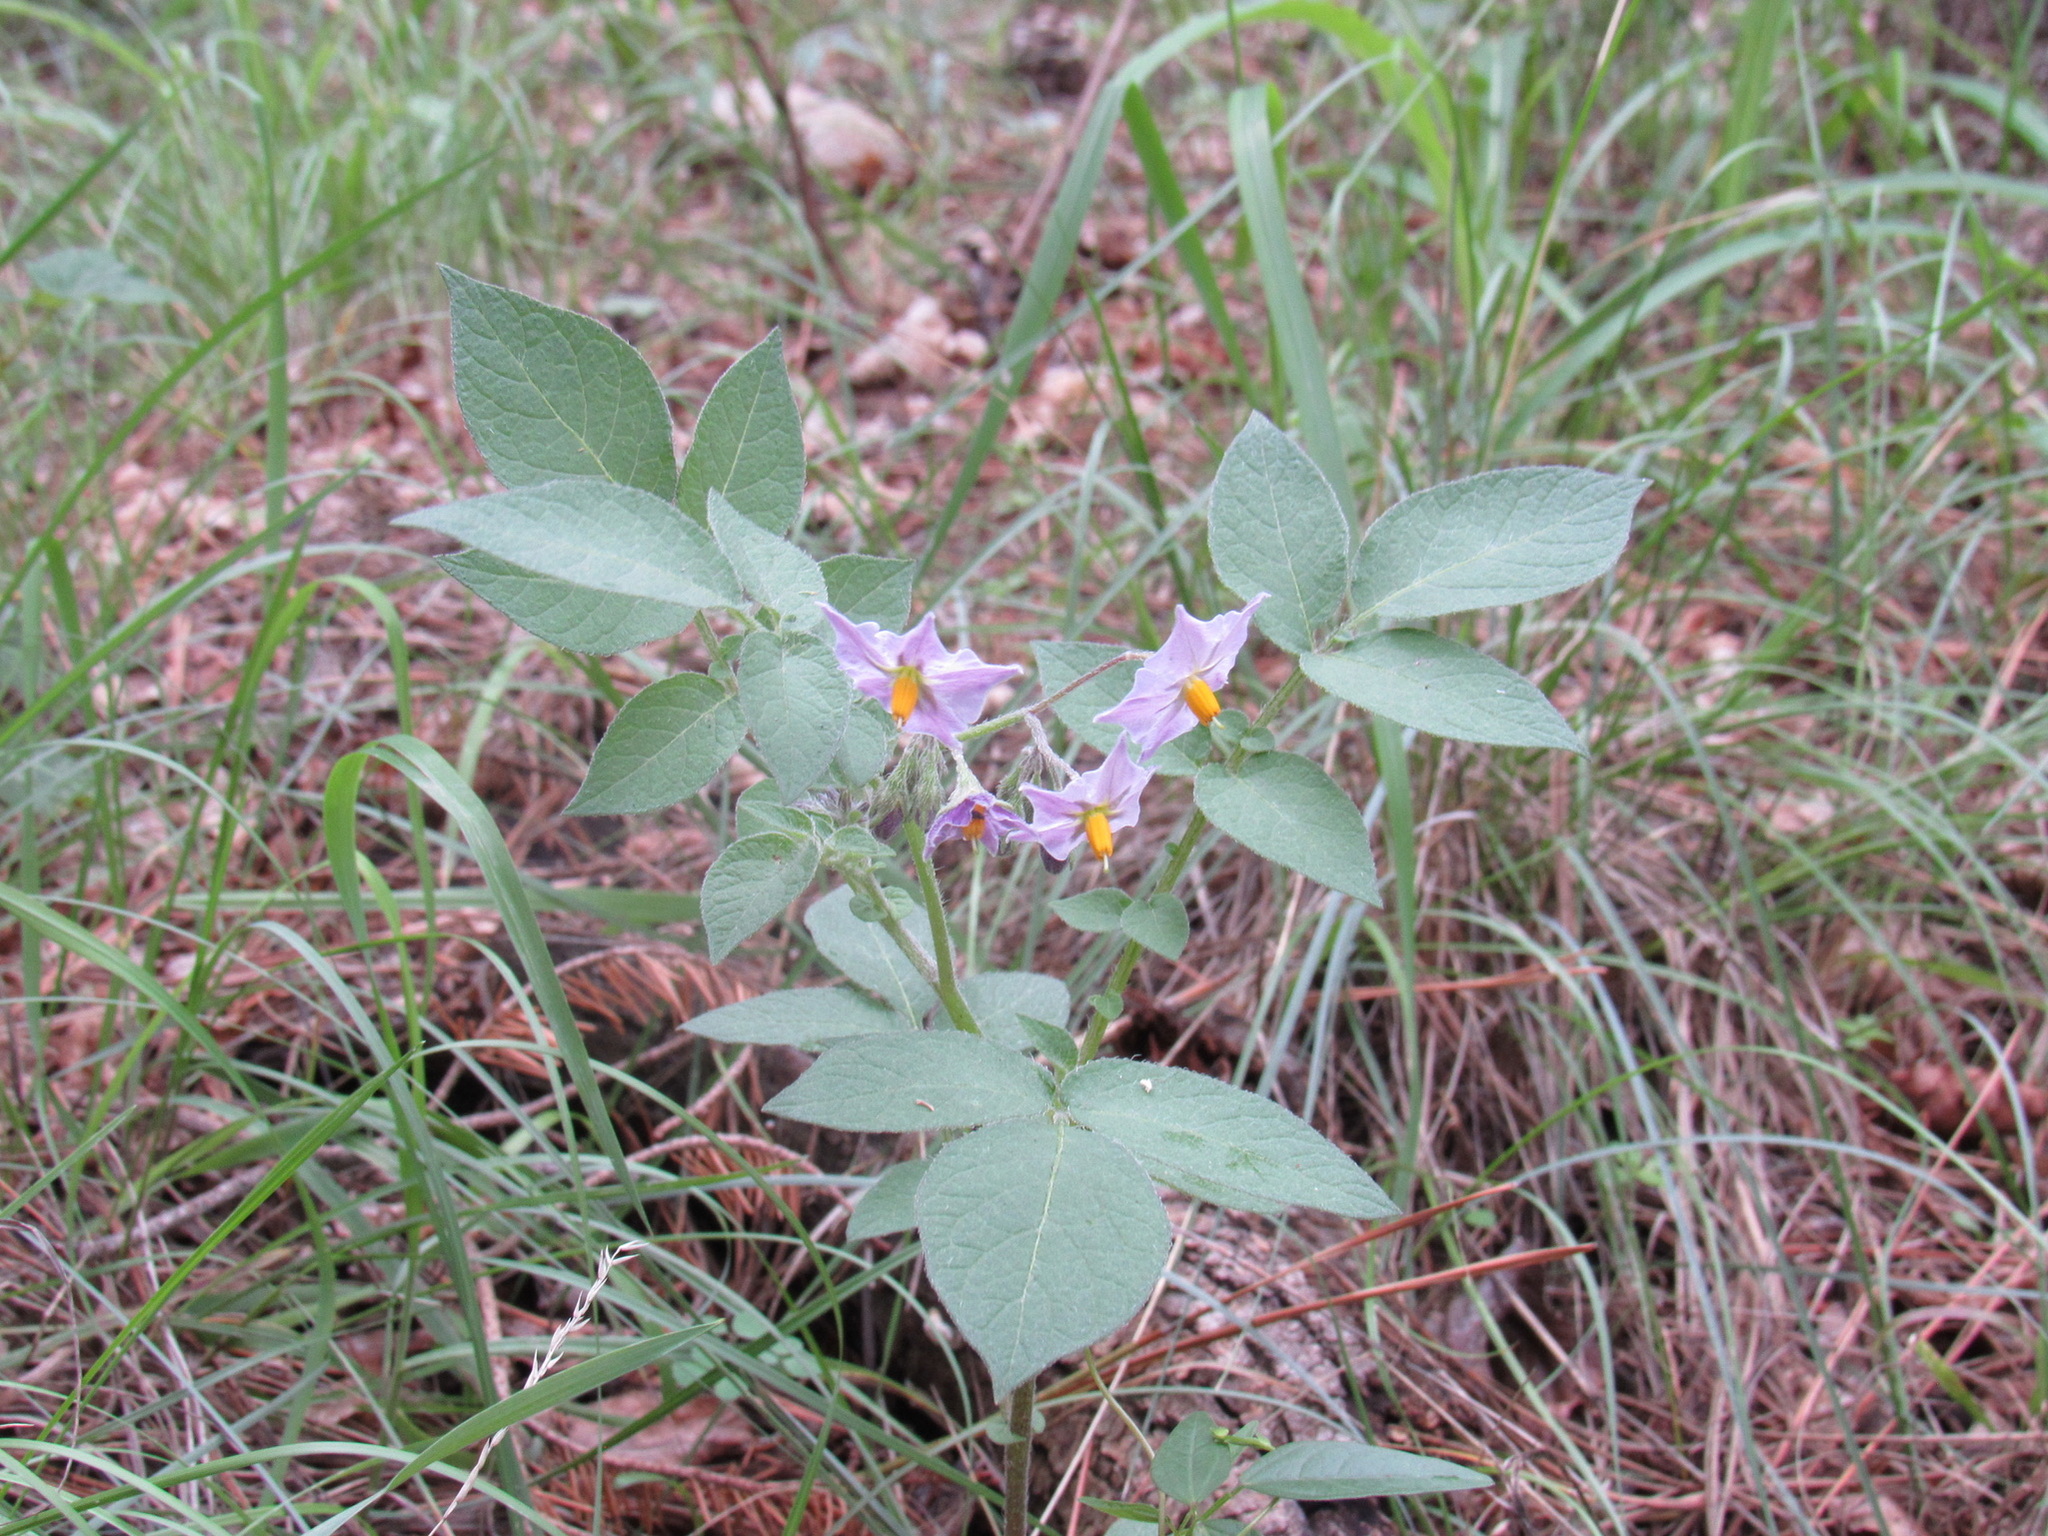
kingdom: Plantae
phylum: Tracheophyta
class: Magnoliopsida
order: Solanales
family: Solanaceae
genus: Solanum
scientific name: Solanum stoloniferum
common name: Fendler's nighshade
